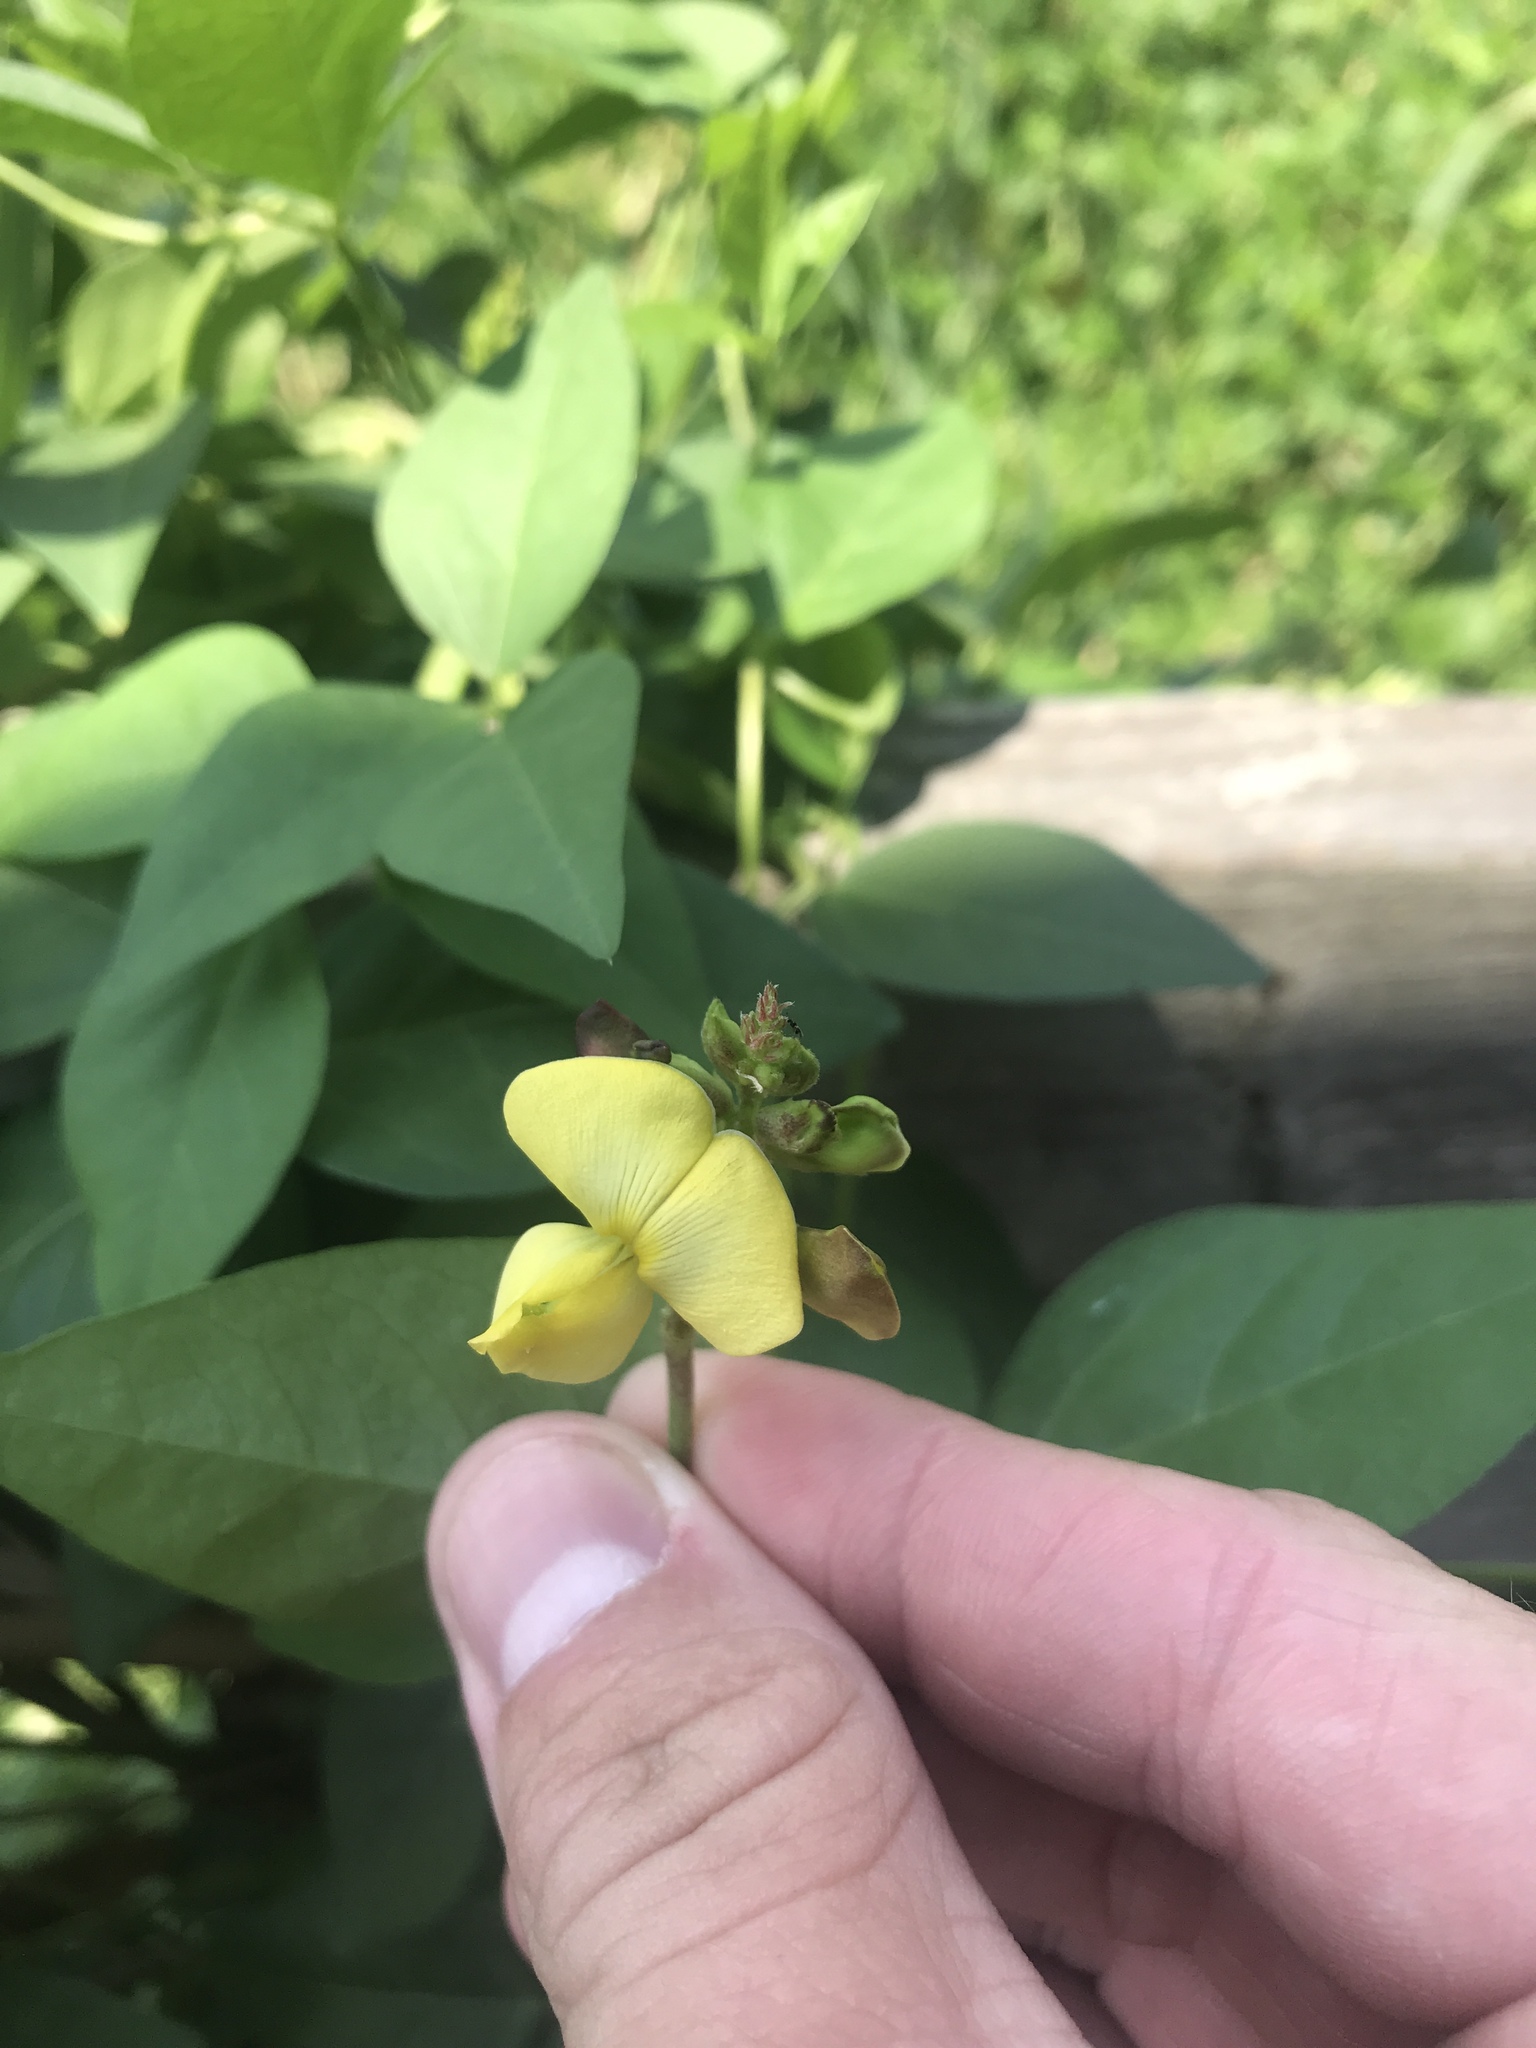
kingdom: Plantae
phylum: Tracheophyta
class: Magnoliopsida
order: Fabales
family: Fabaceae
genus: Vigna
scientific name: Vigna luteola
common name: Hairypod cowpea
